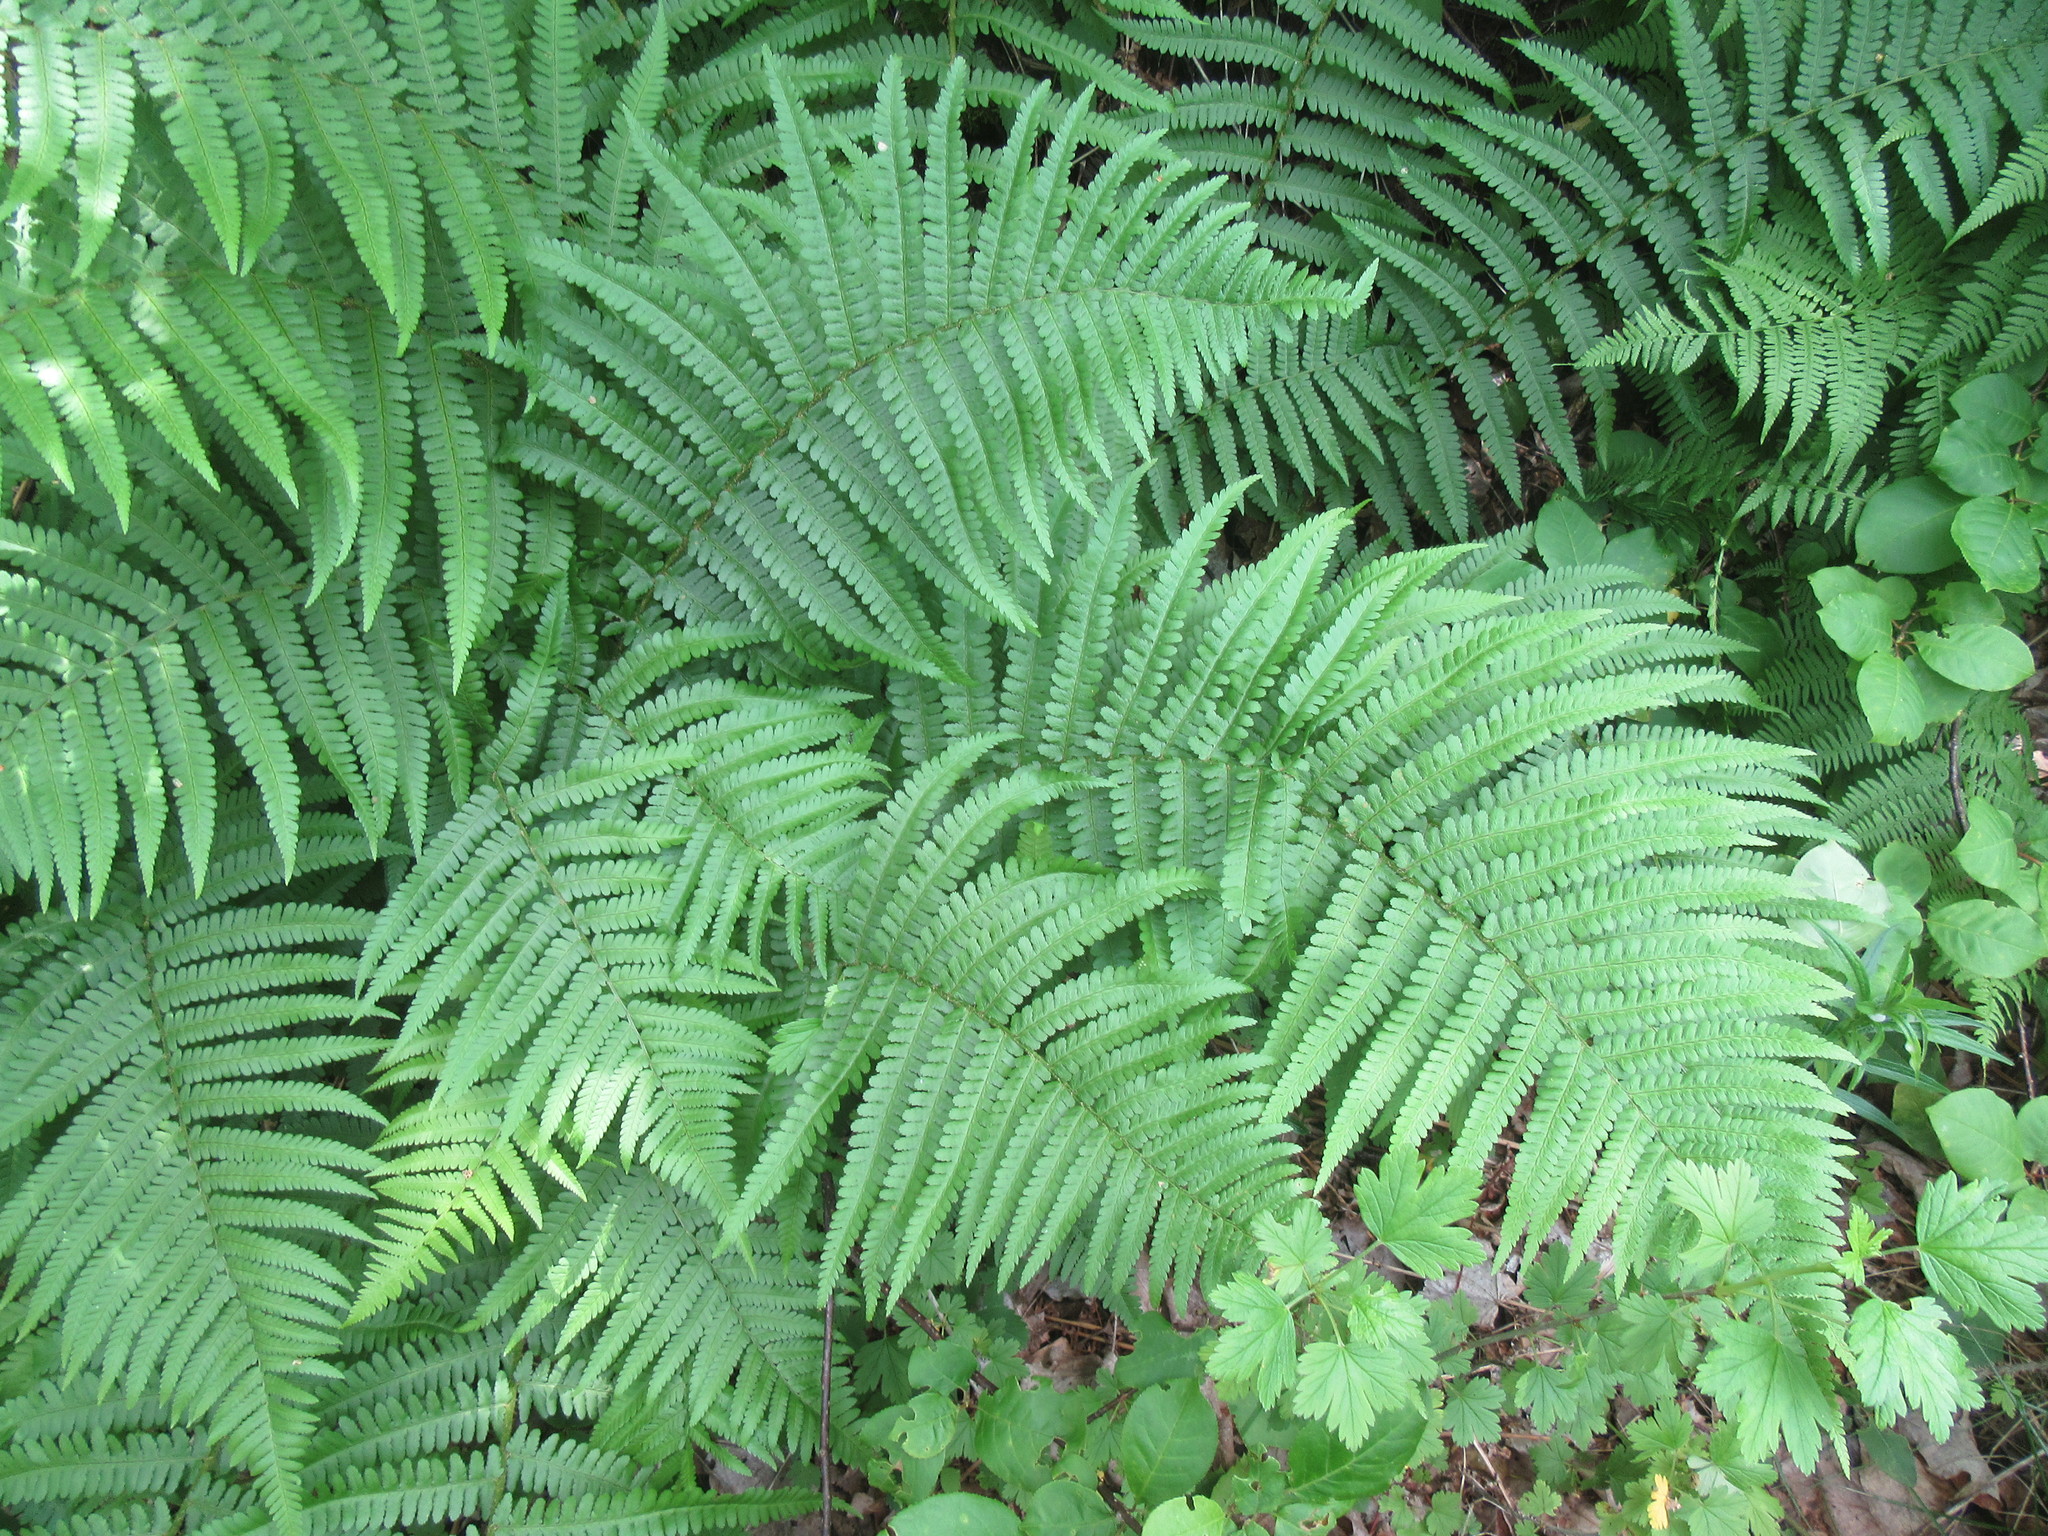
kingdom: Plantae
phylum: Tracheophyta
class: Polypodiopsida
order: Polypodiales
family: Dryopteridaceae
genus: Dryopteris
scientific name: Dryopteris filix-mas
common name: Male fern
